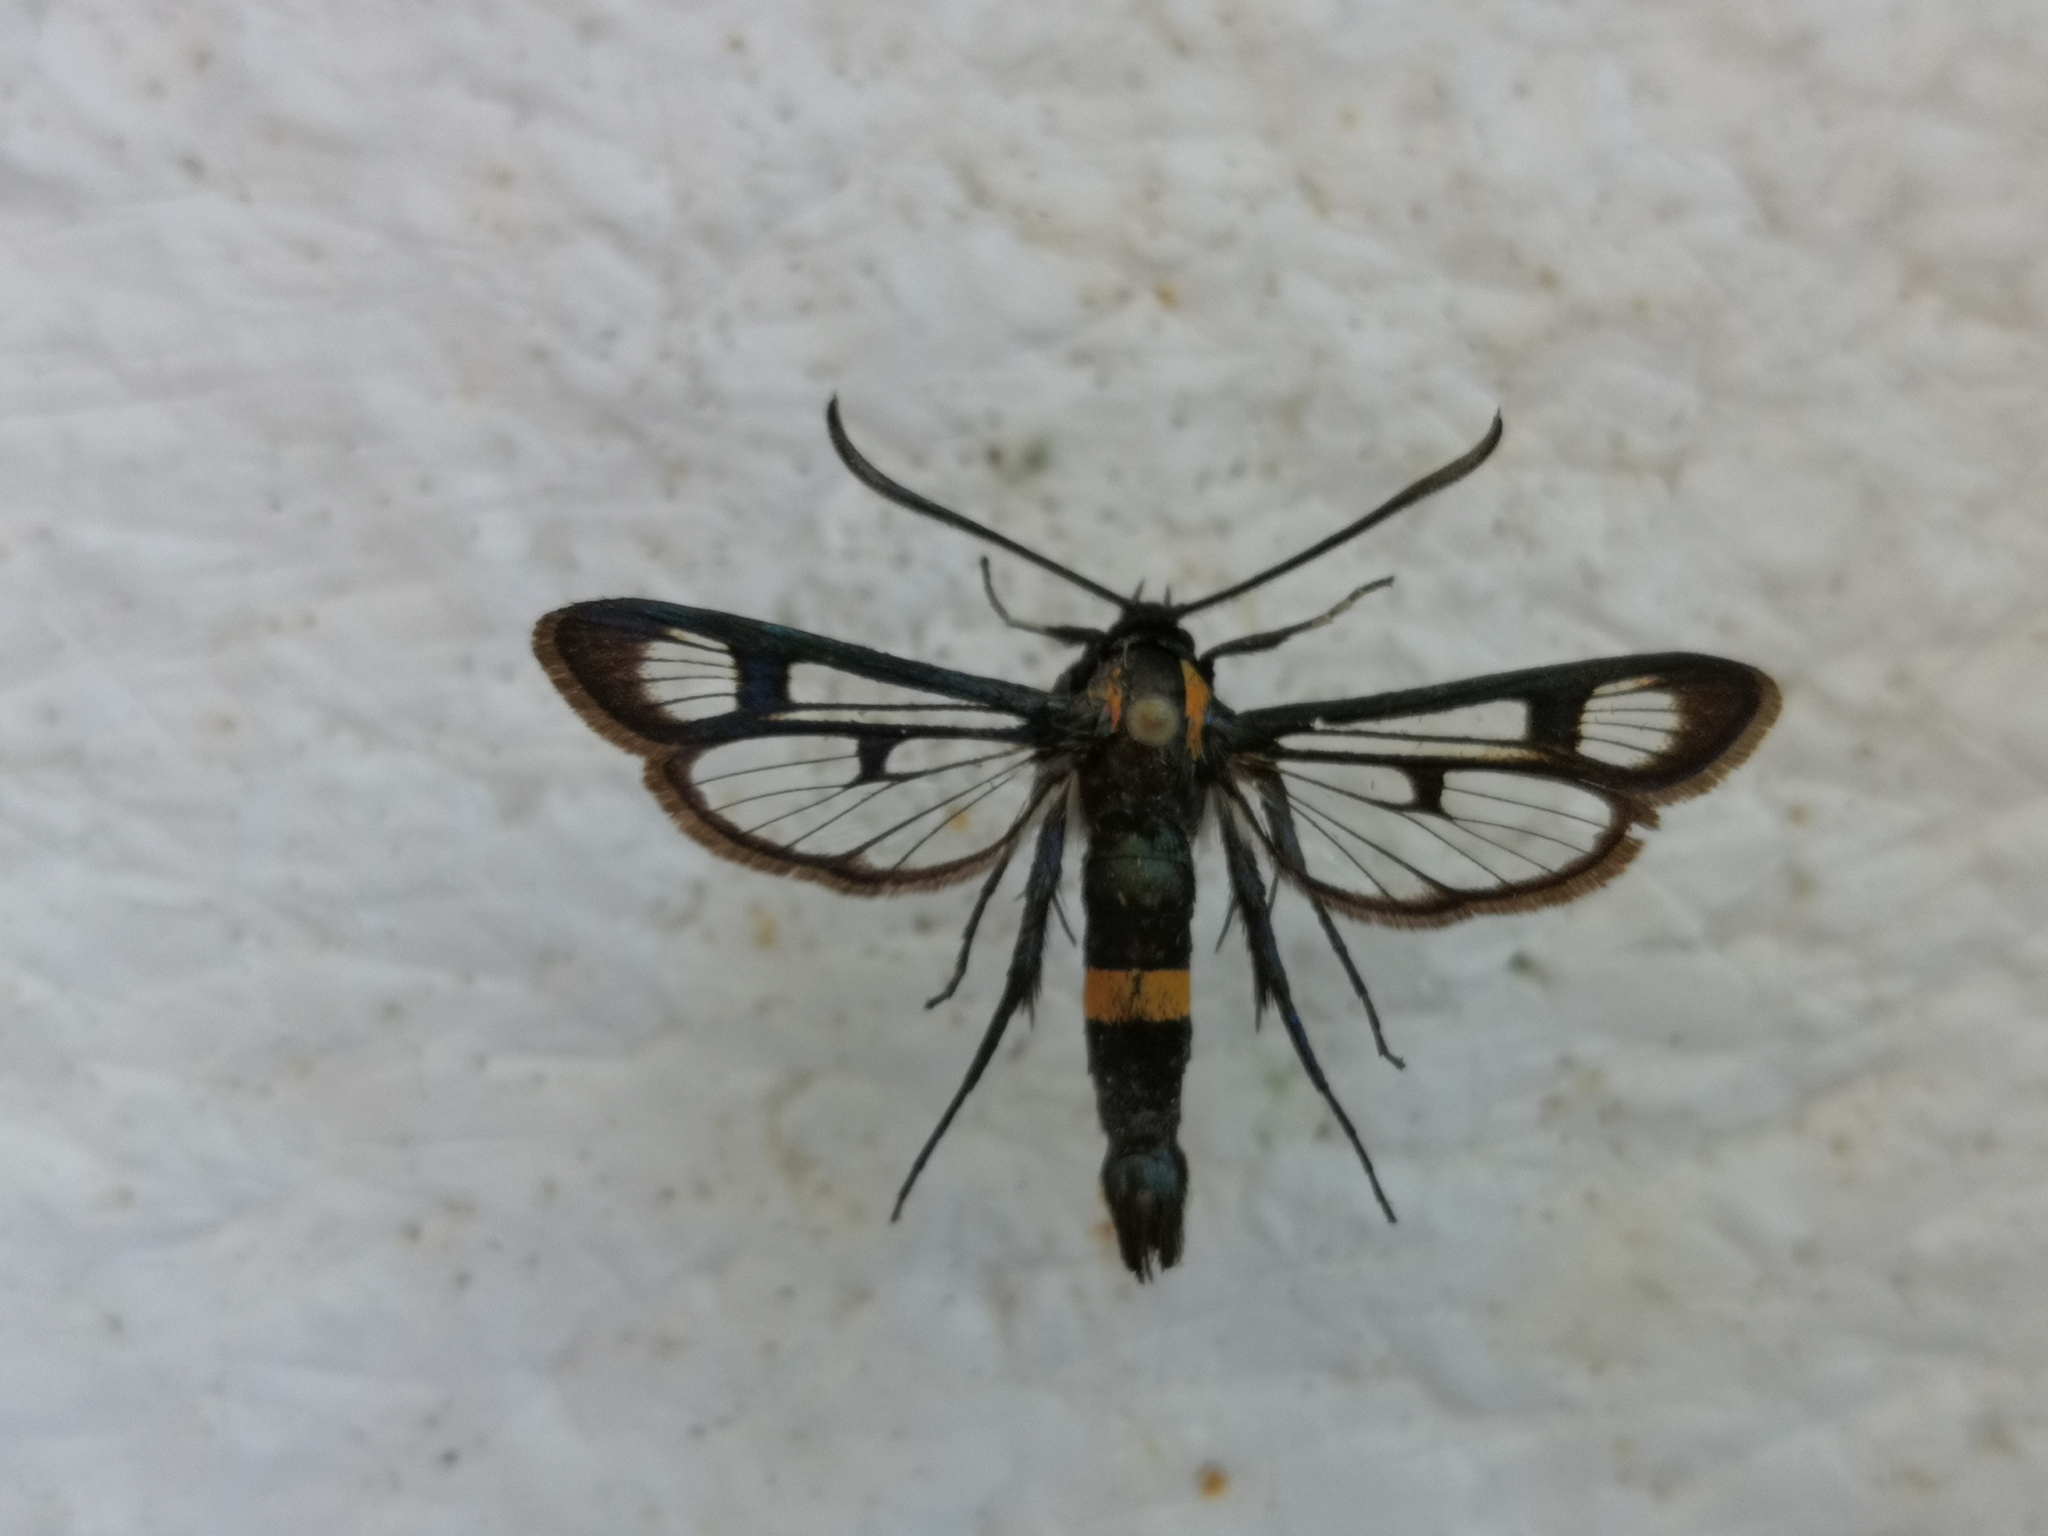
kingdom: Animalia
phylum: Arthropoda
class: Insecta
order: Lepidoptera
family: Sesiidae
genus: Synanthedon
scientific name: Synanthedon stomoxiformis
